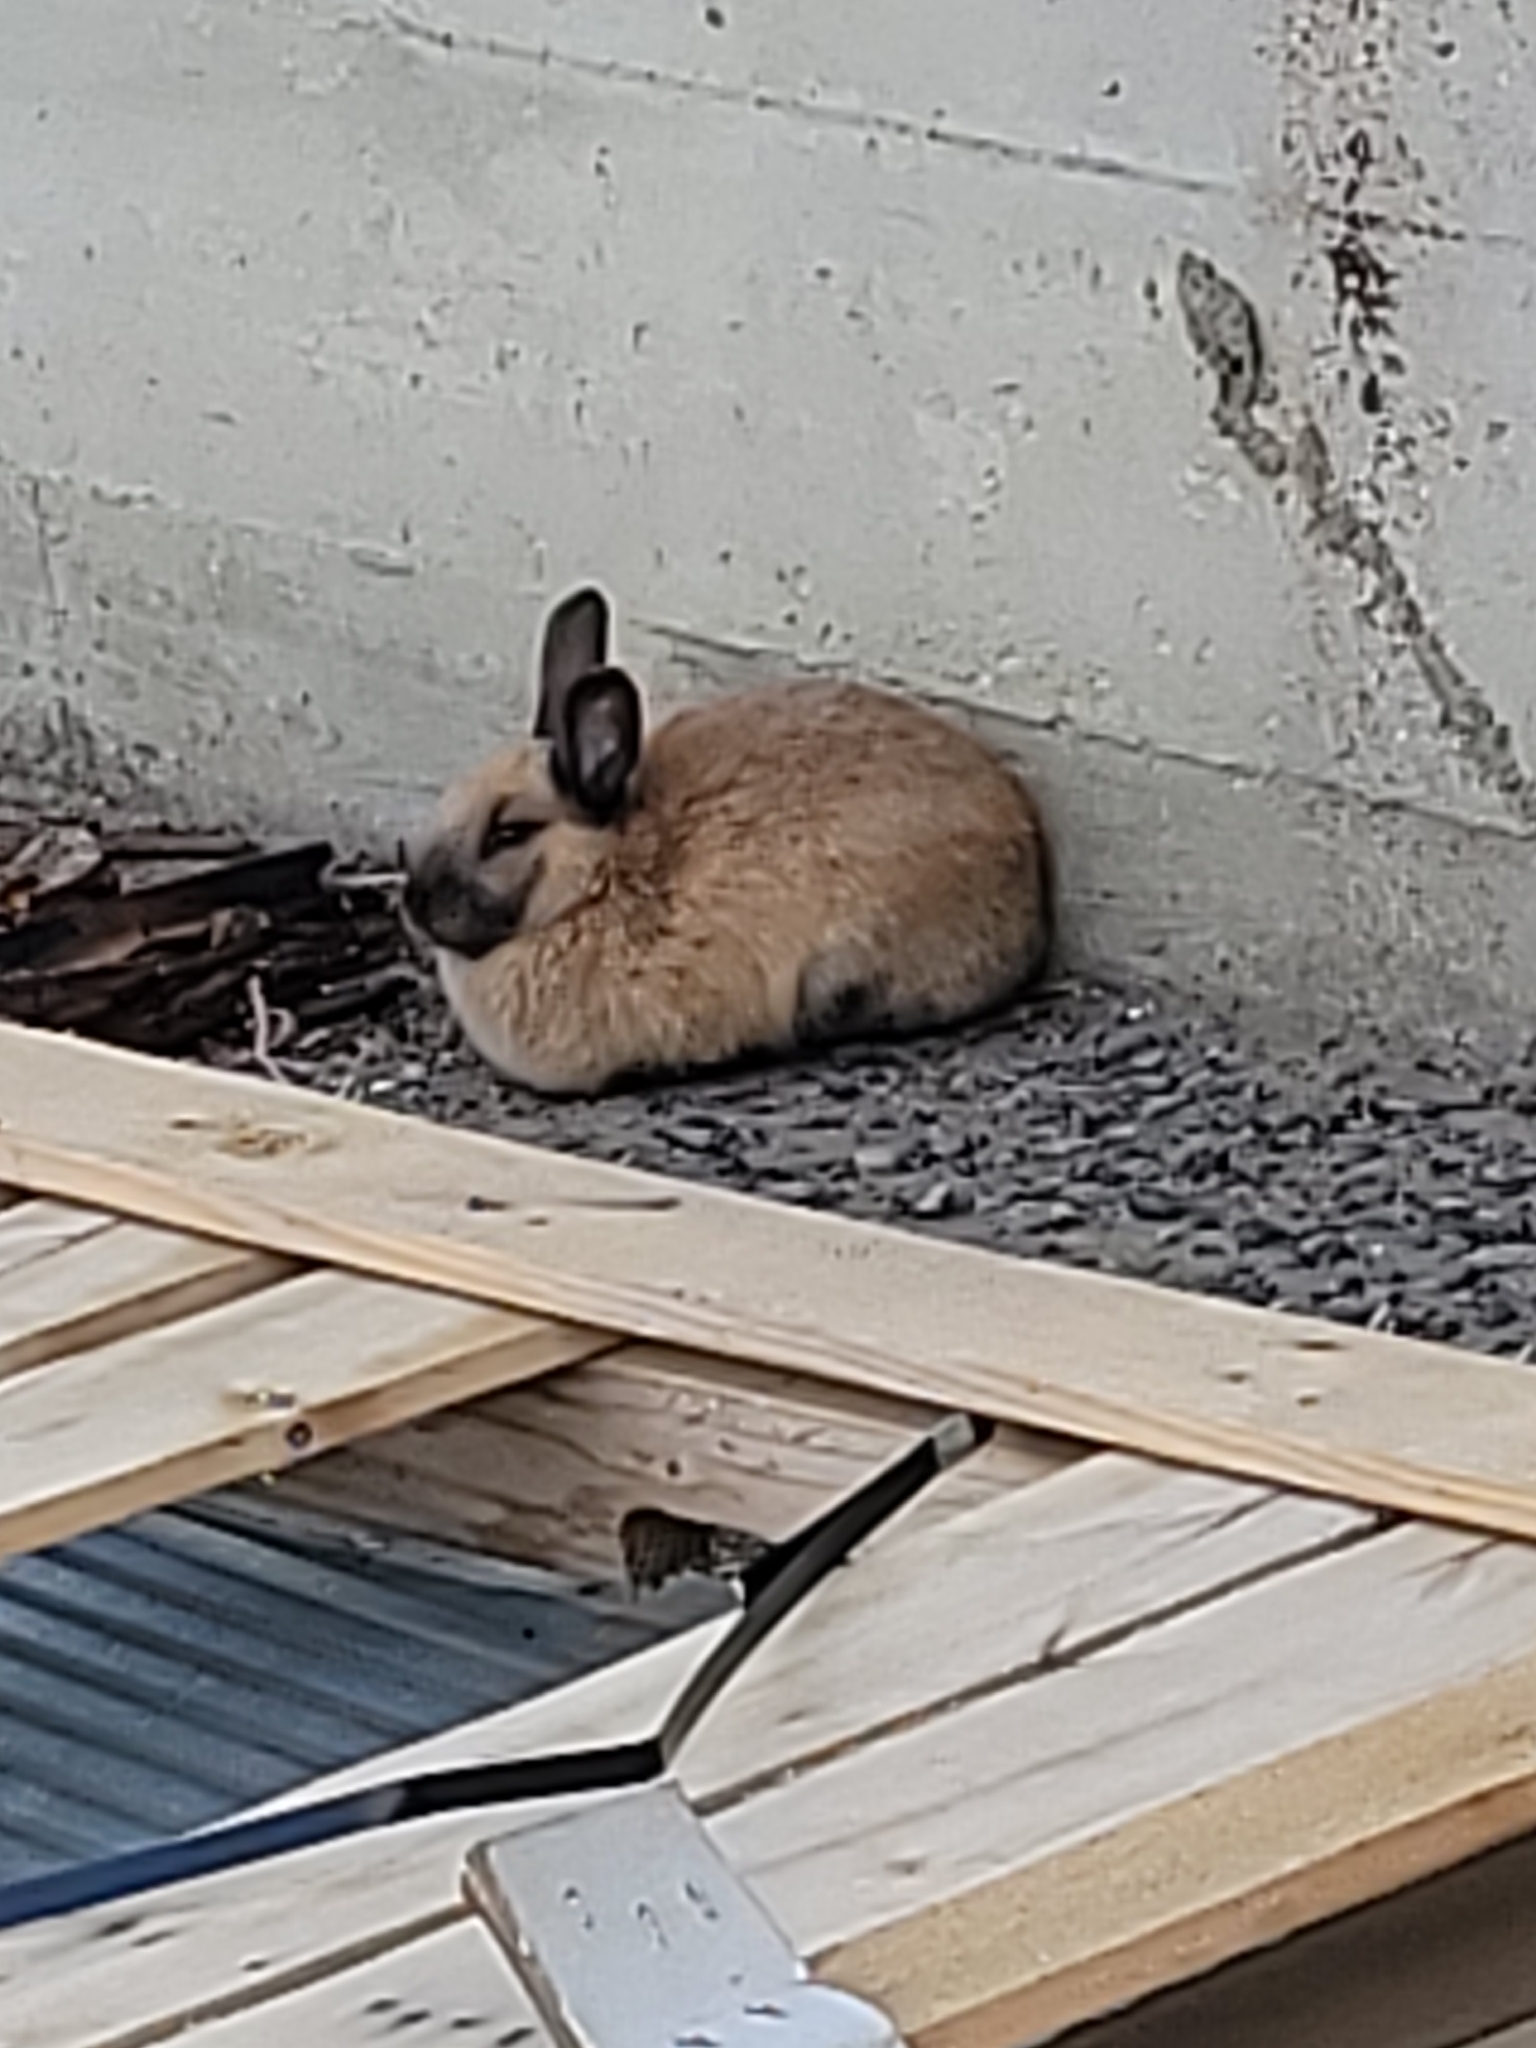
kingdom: Animalia
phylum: Chordata
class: Mammalia
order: Lagomorpha
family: Leporidae
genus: Oryctolagus
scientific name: Oryctolagus cuniculus
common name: European rabbit
